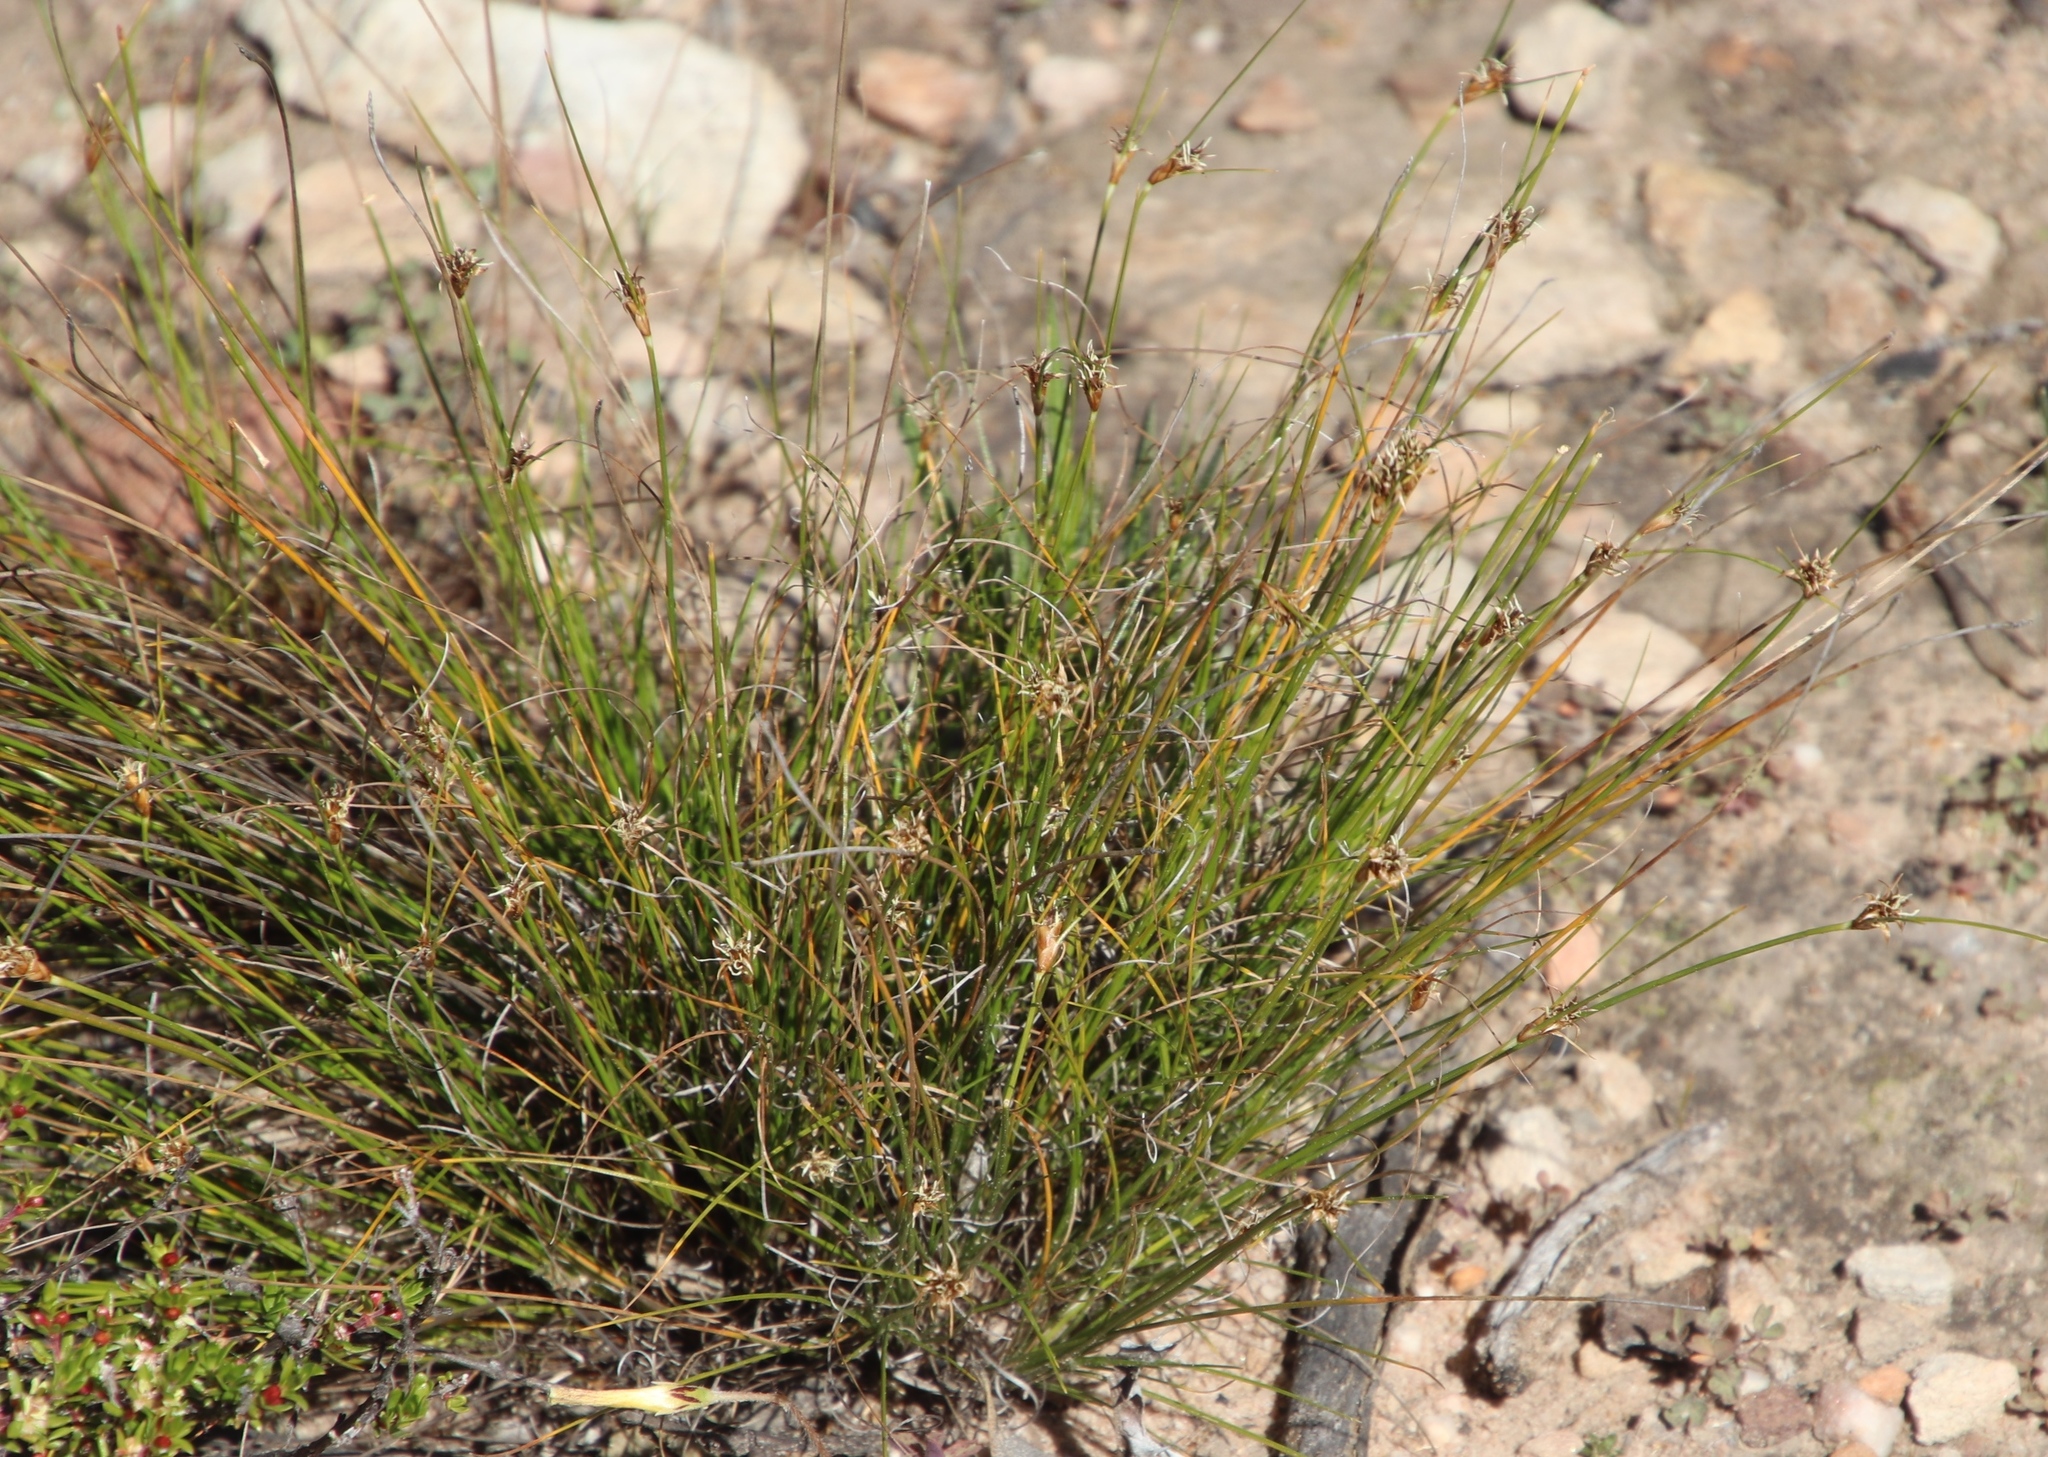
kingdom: Plantae
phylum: Tracheophyta
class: Liliopsida
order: Poales
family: Cyperaceae
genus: Ficinia
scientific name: Ficinia nigrescens
